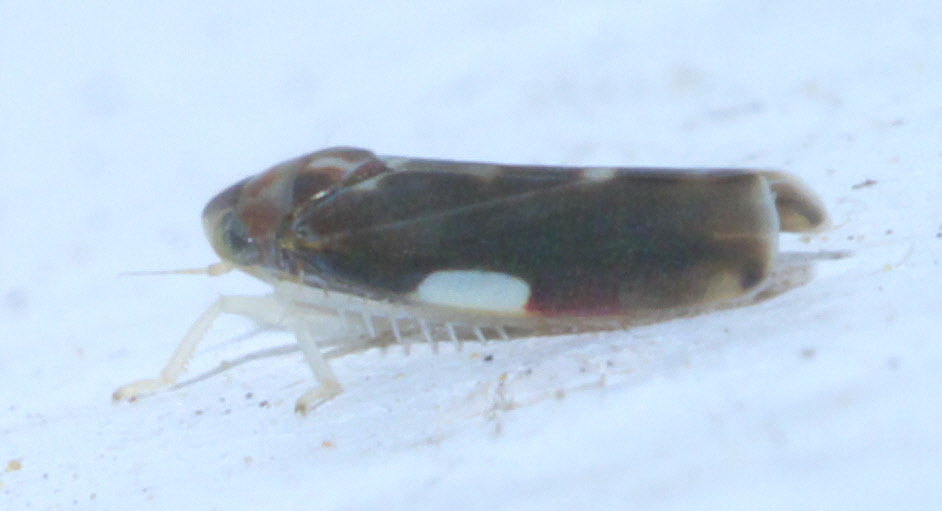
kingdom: Animalia
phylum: Arthropoda
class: Insecta
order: Hemiptera
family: Cicadellidae
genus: Erythroneura
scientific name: Erythroneura infuscata
